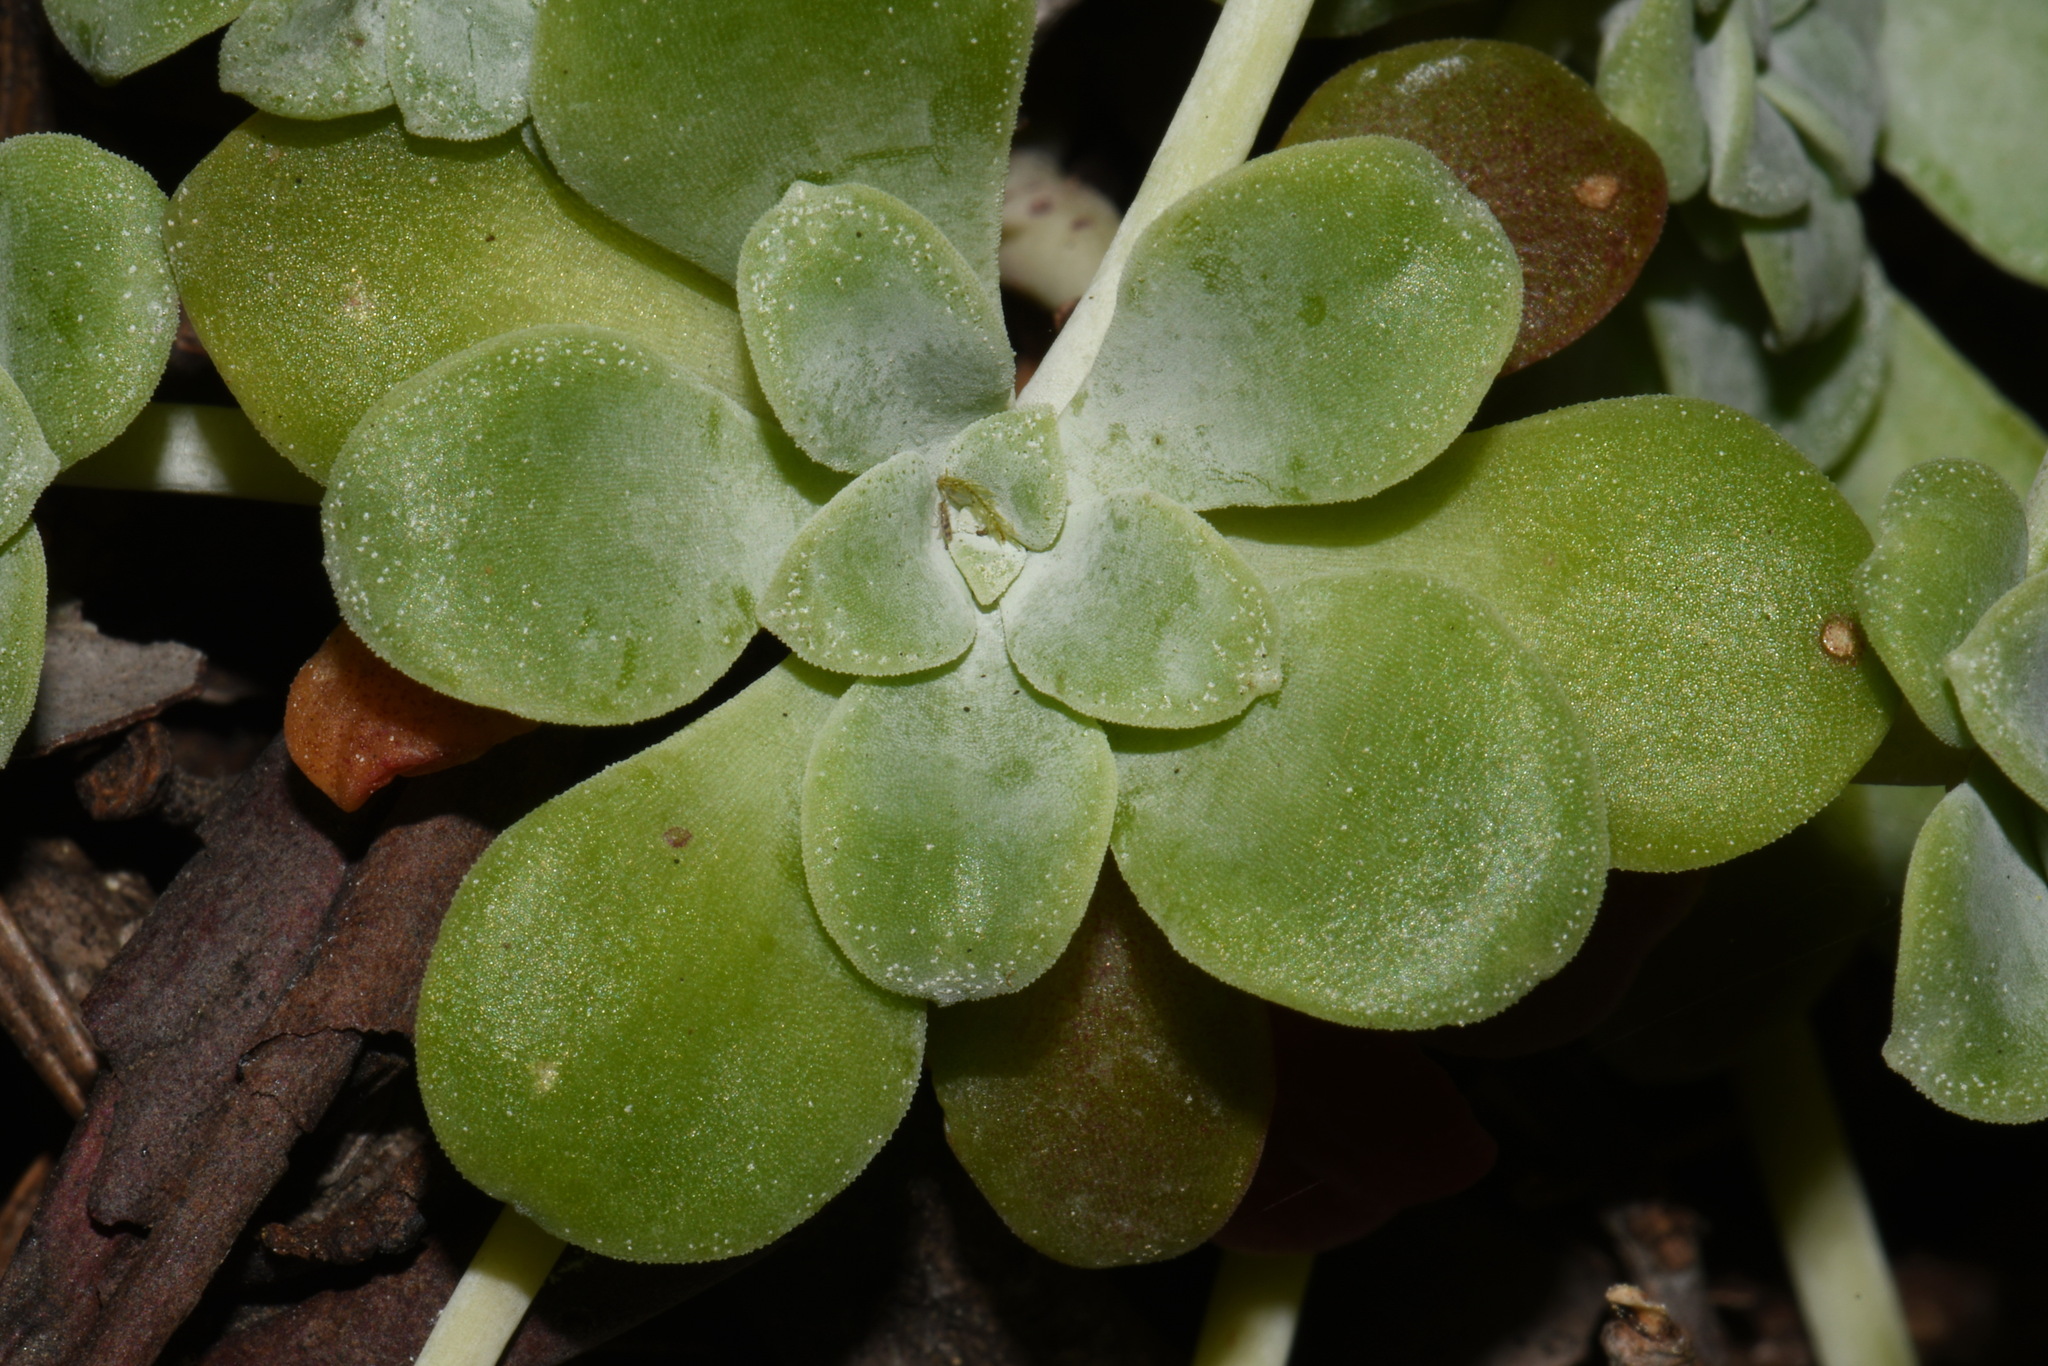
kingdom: Plantae
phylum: Tracheophyta
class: Magnoliopsida
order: Saxifragales
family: Crassulaceae
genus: Sedum
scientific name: Sedum spathulifolium
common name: Colorado stonecrop
